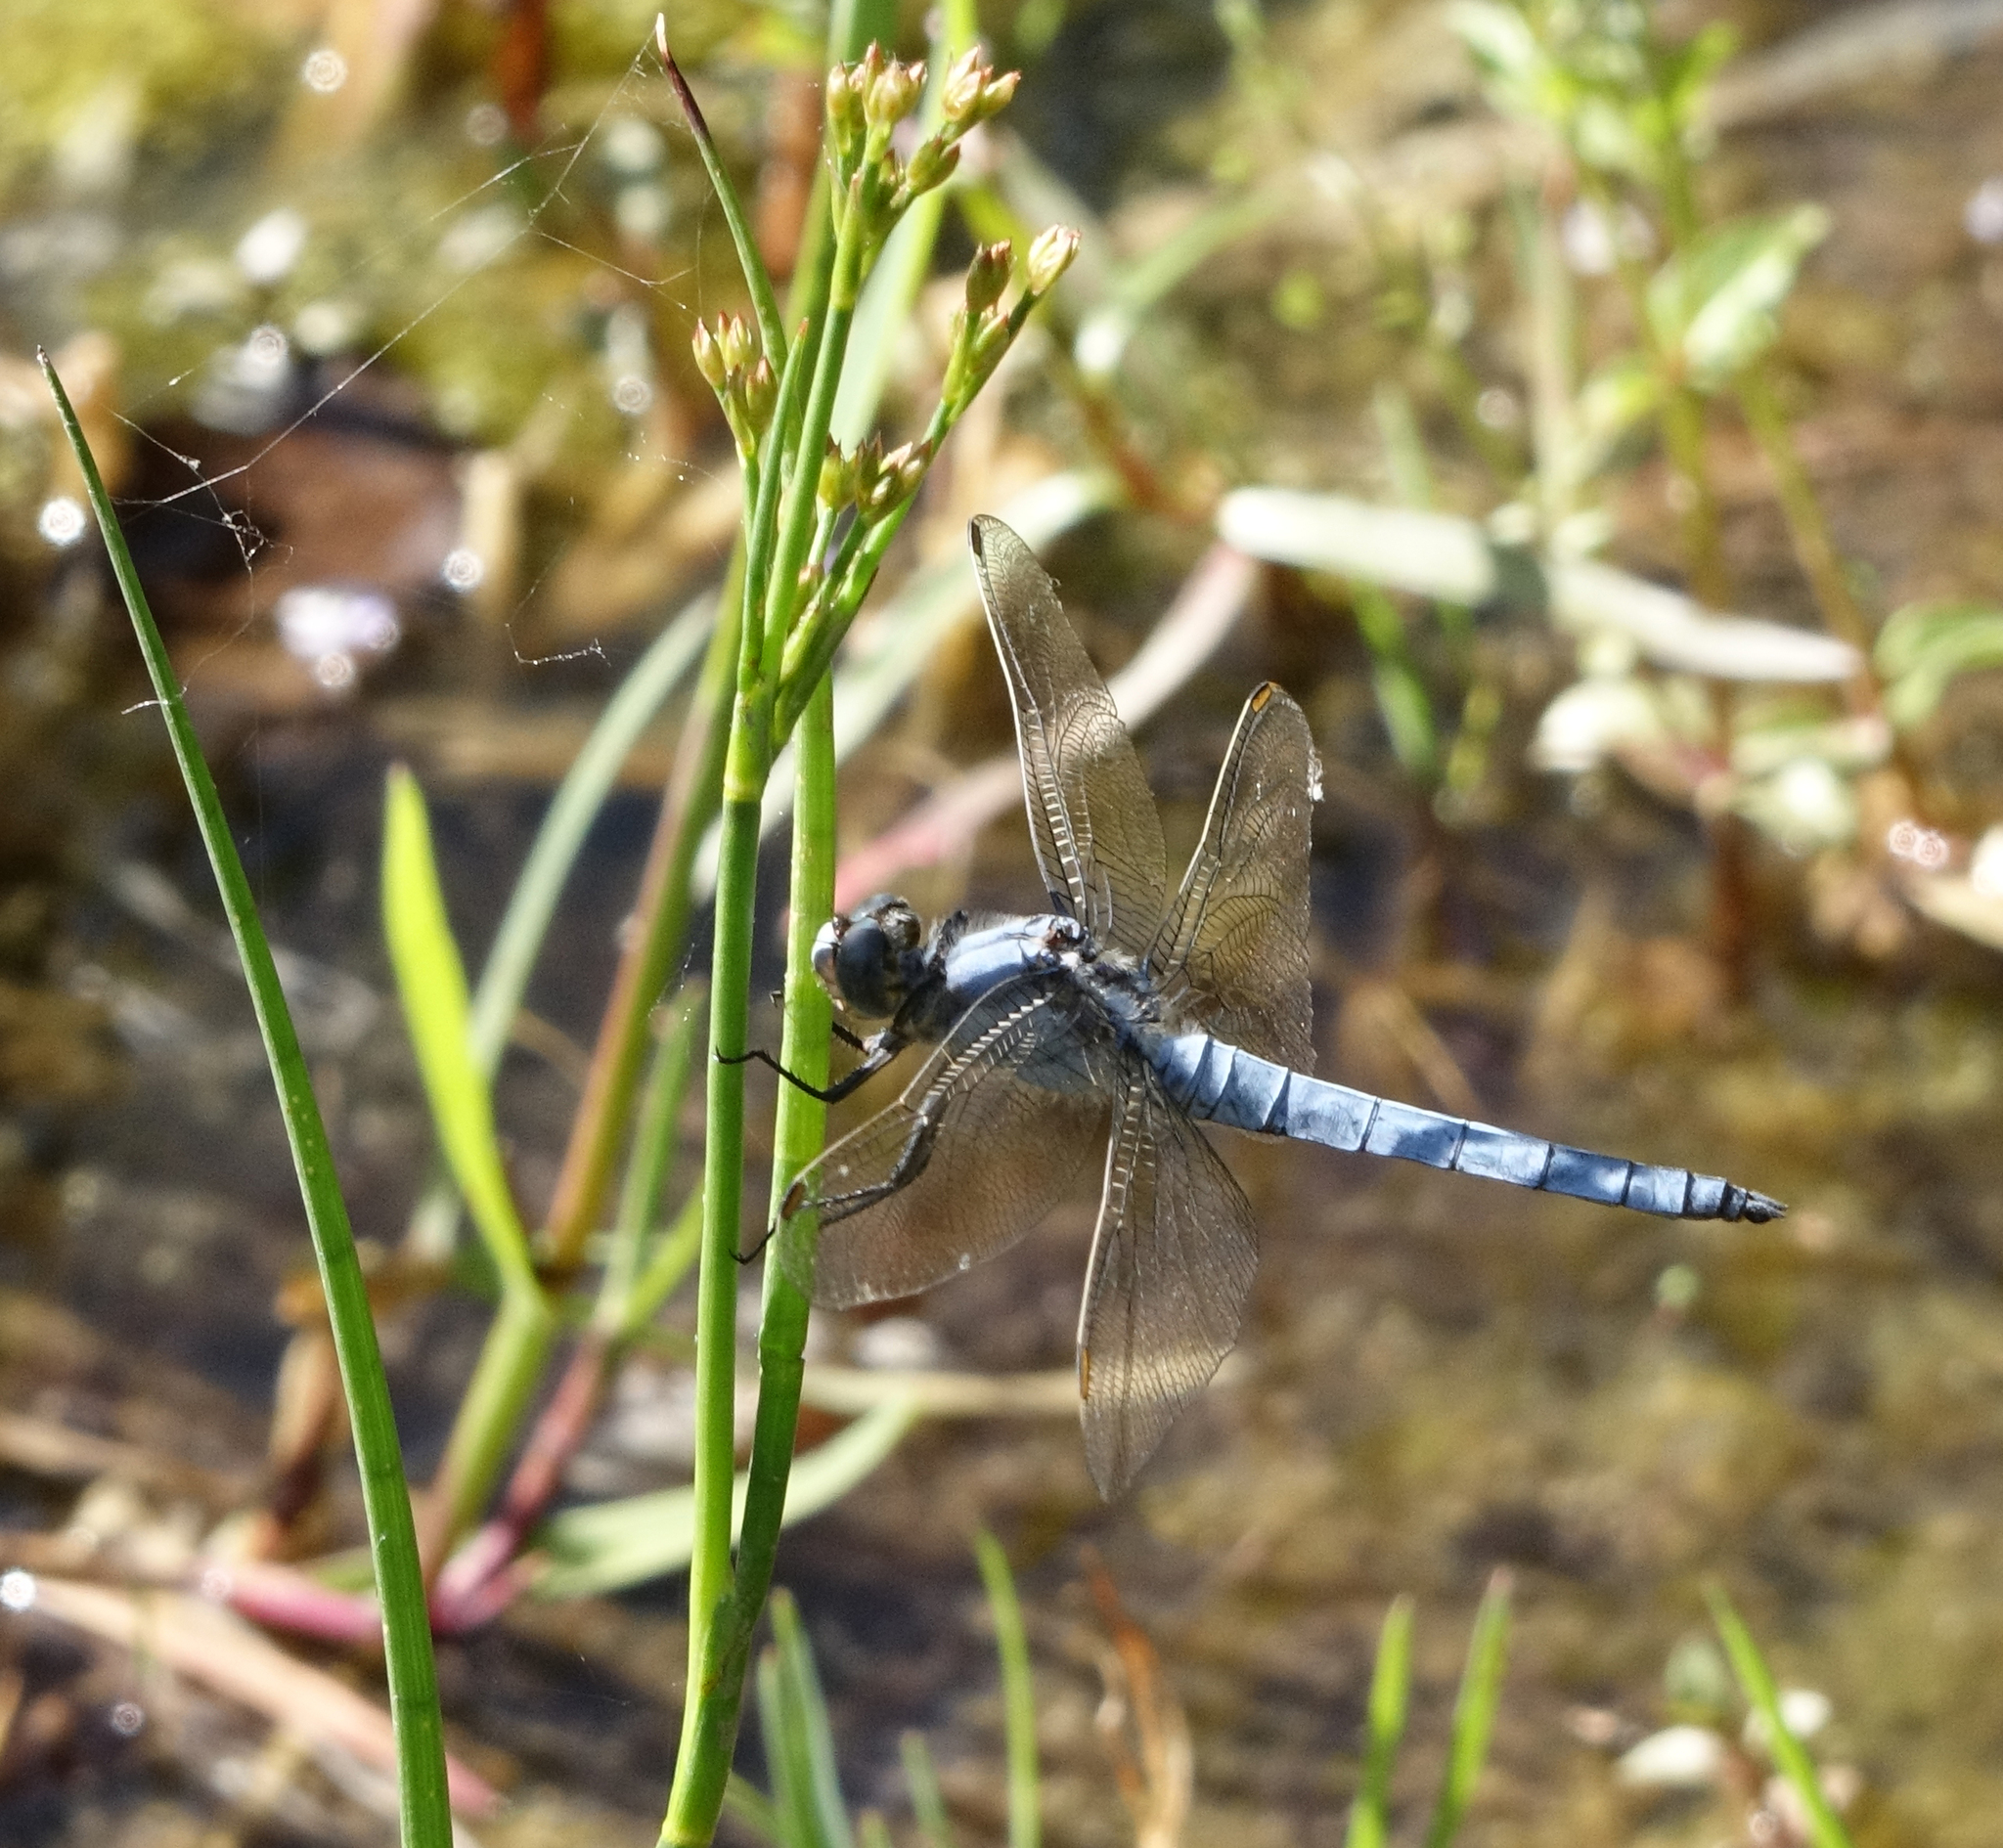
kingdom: Animalia
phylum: Arthropoda
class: Insecta
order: Odonata
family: Libellulidae
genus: Orthetrum
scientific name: Orthetrum brunneum
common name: Southern skimmer
